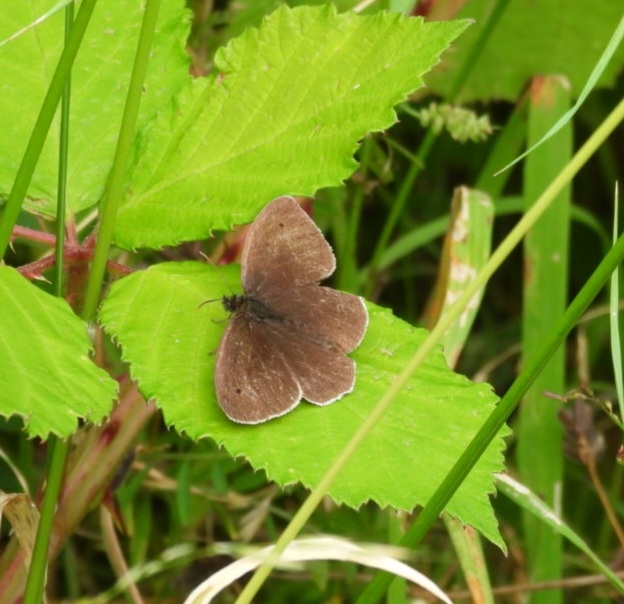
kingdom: Animalia
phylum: Arthropoda
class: Insecta
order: Lepidoptera
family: Nymphalidae
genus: Aphantopus
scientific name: Aphantopus hyperantus
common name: Ringlet
